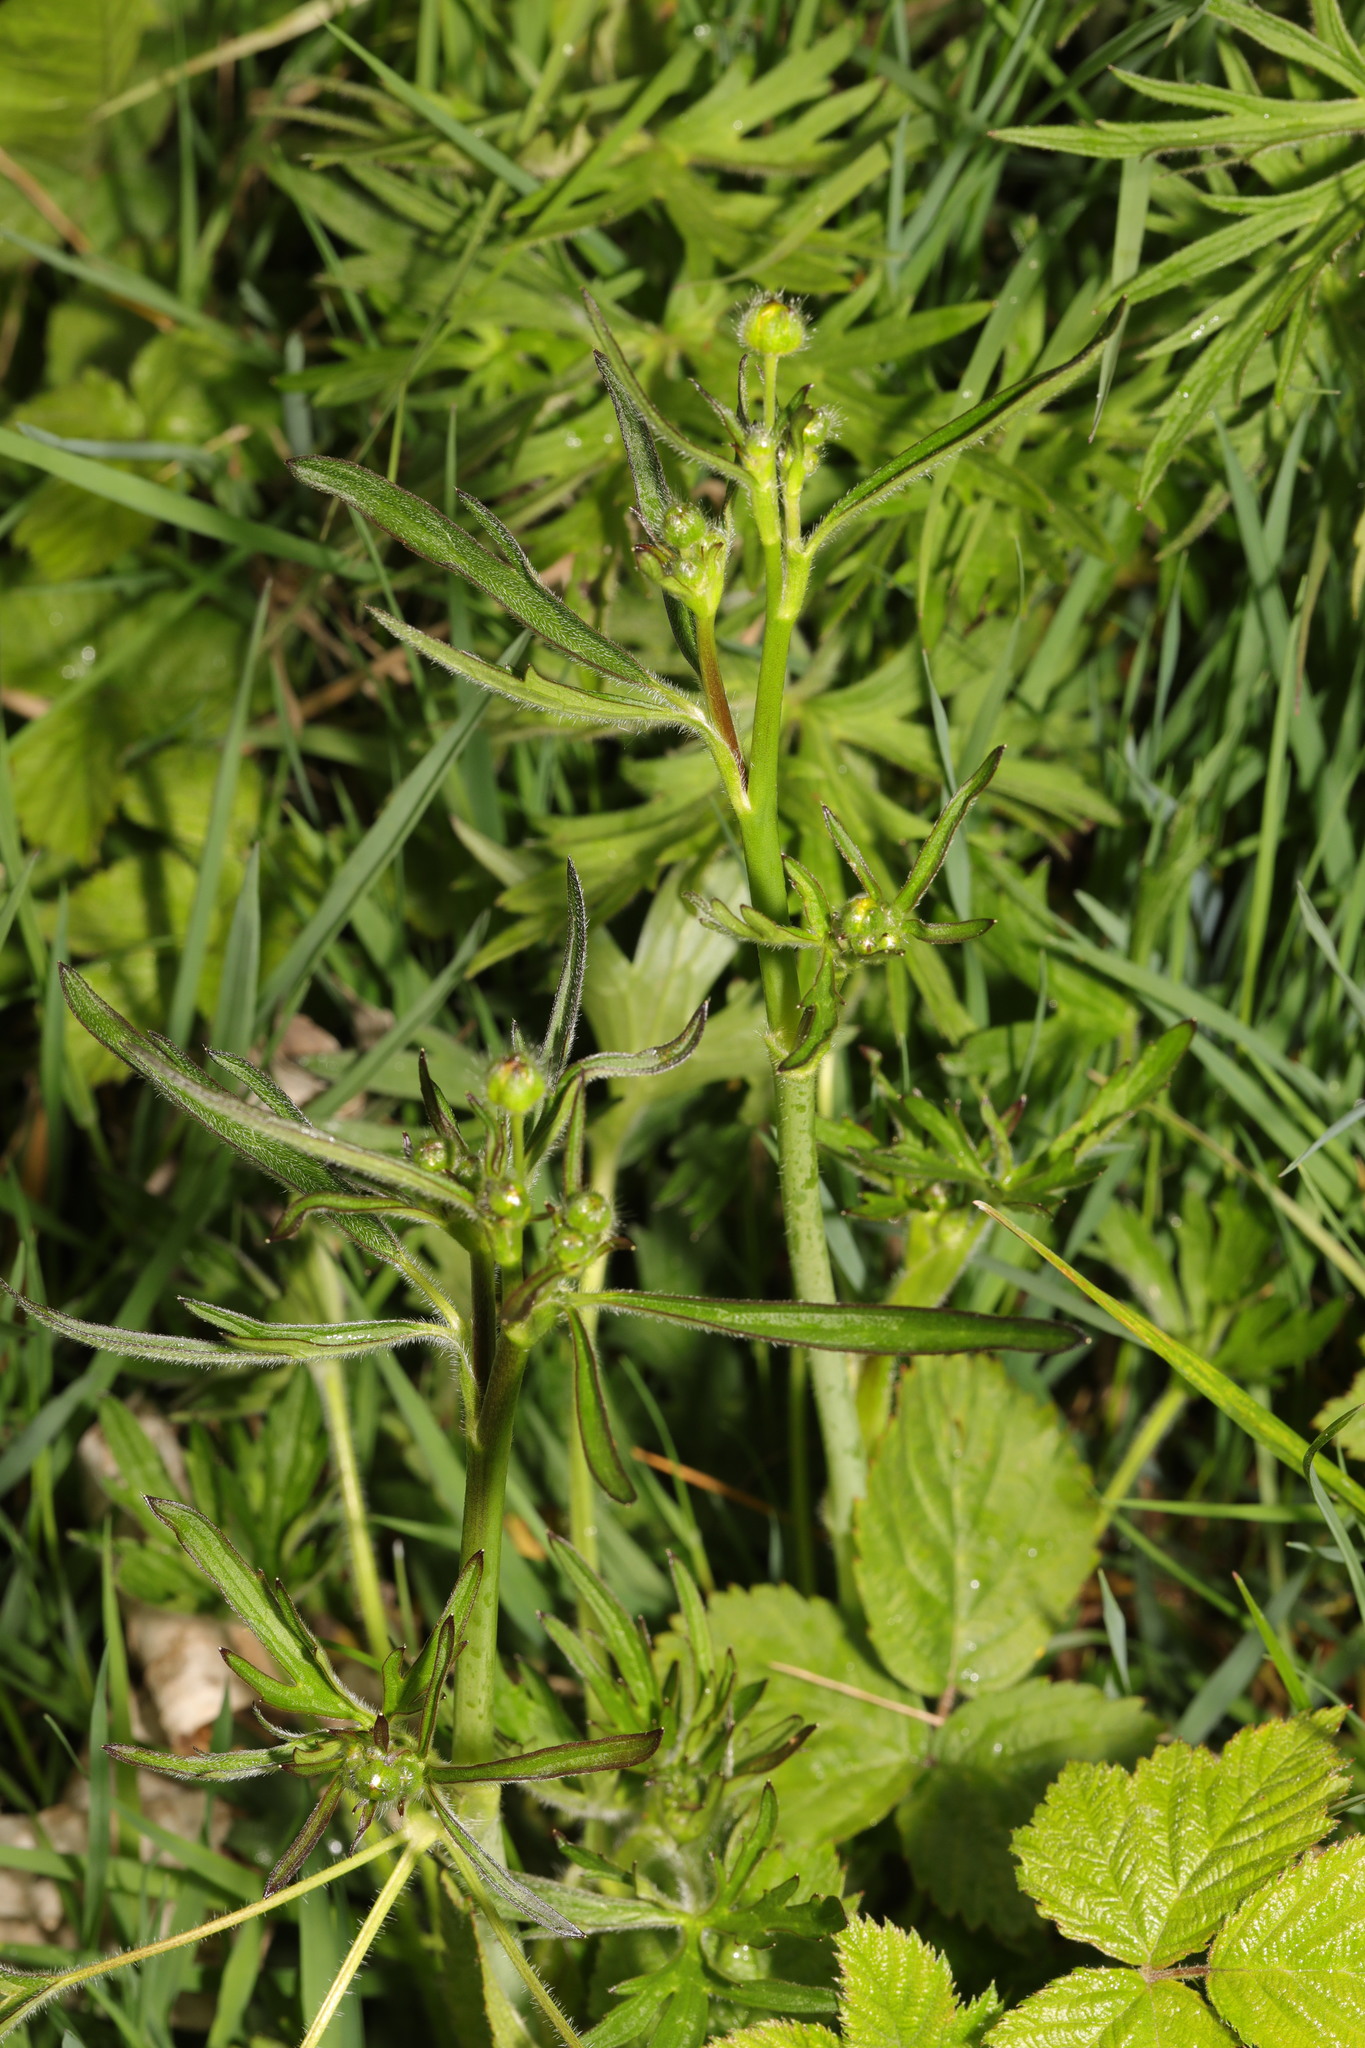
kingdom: Plantae
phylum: Tracheophyta
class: Magnoliopsida
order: Ranunculales
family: Ranunculaceae
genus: Ranunculus
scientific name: Ranunculus acris
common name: Meadow buttercup
